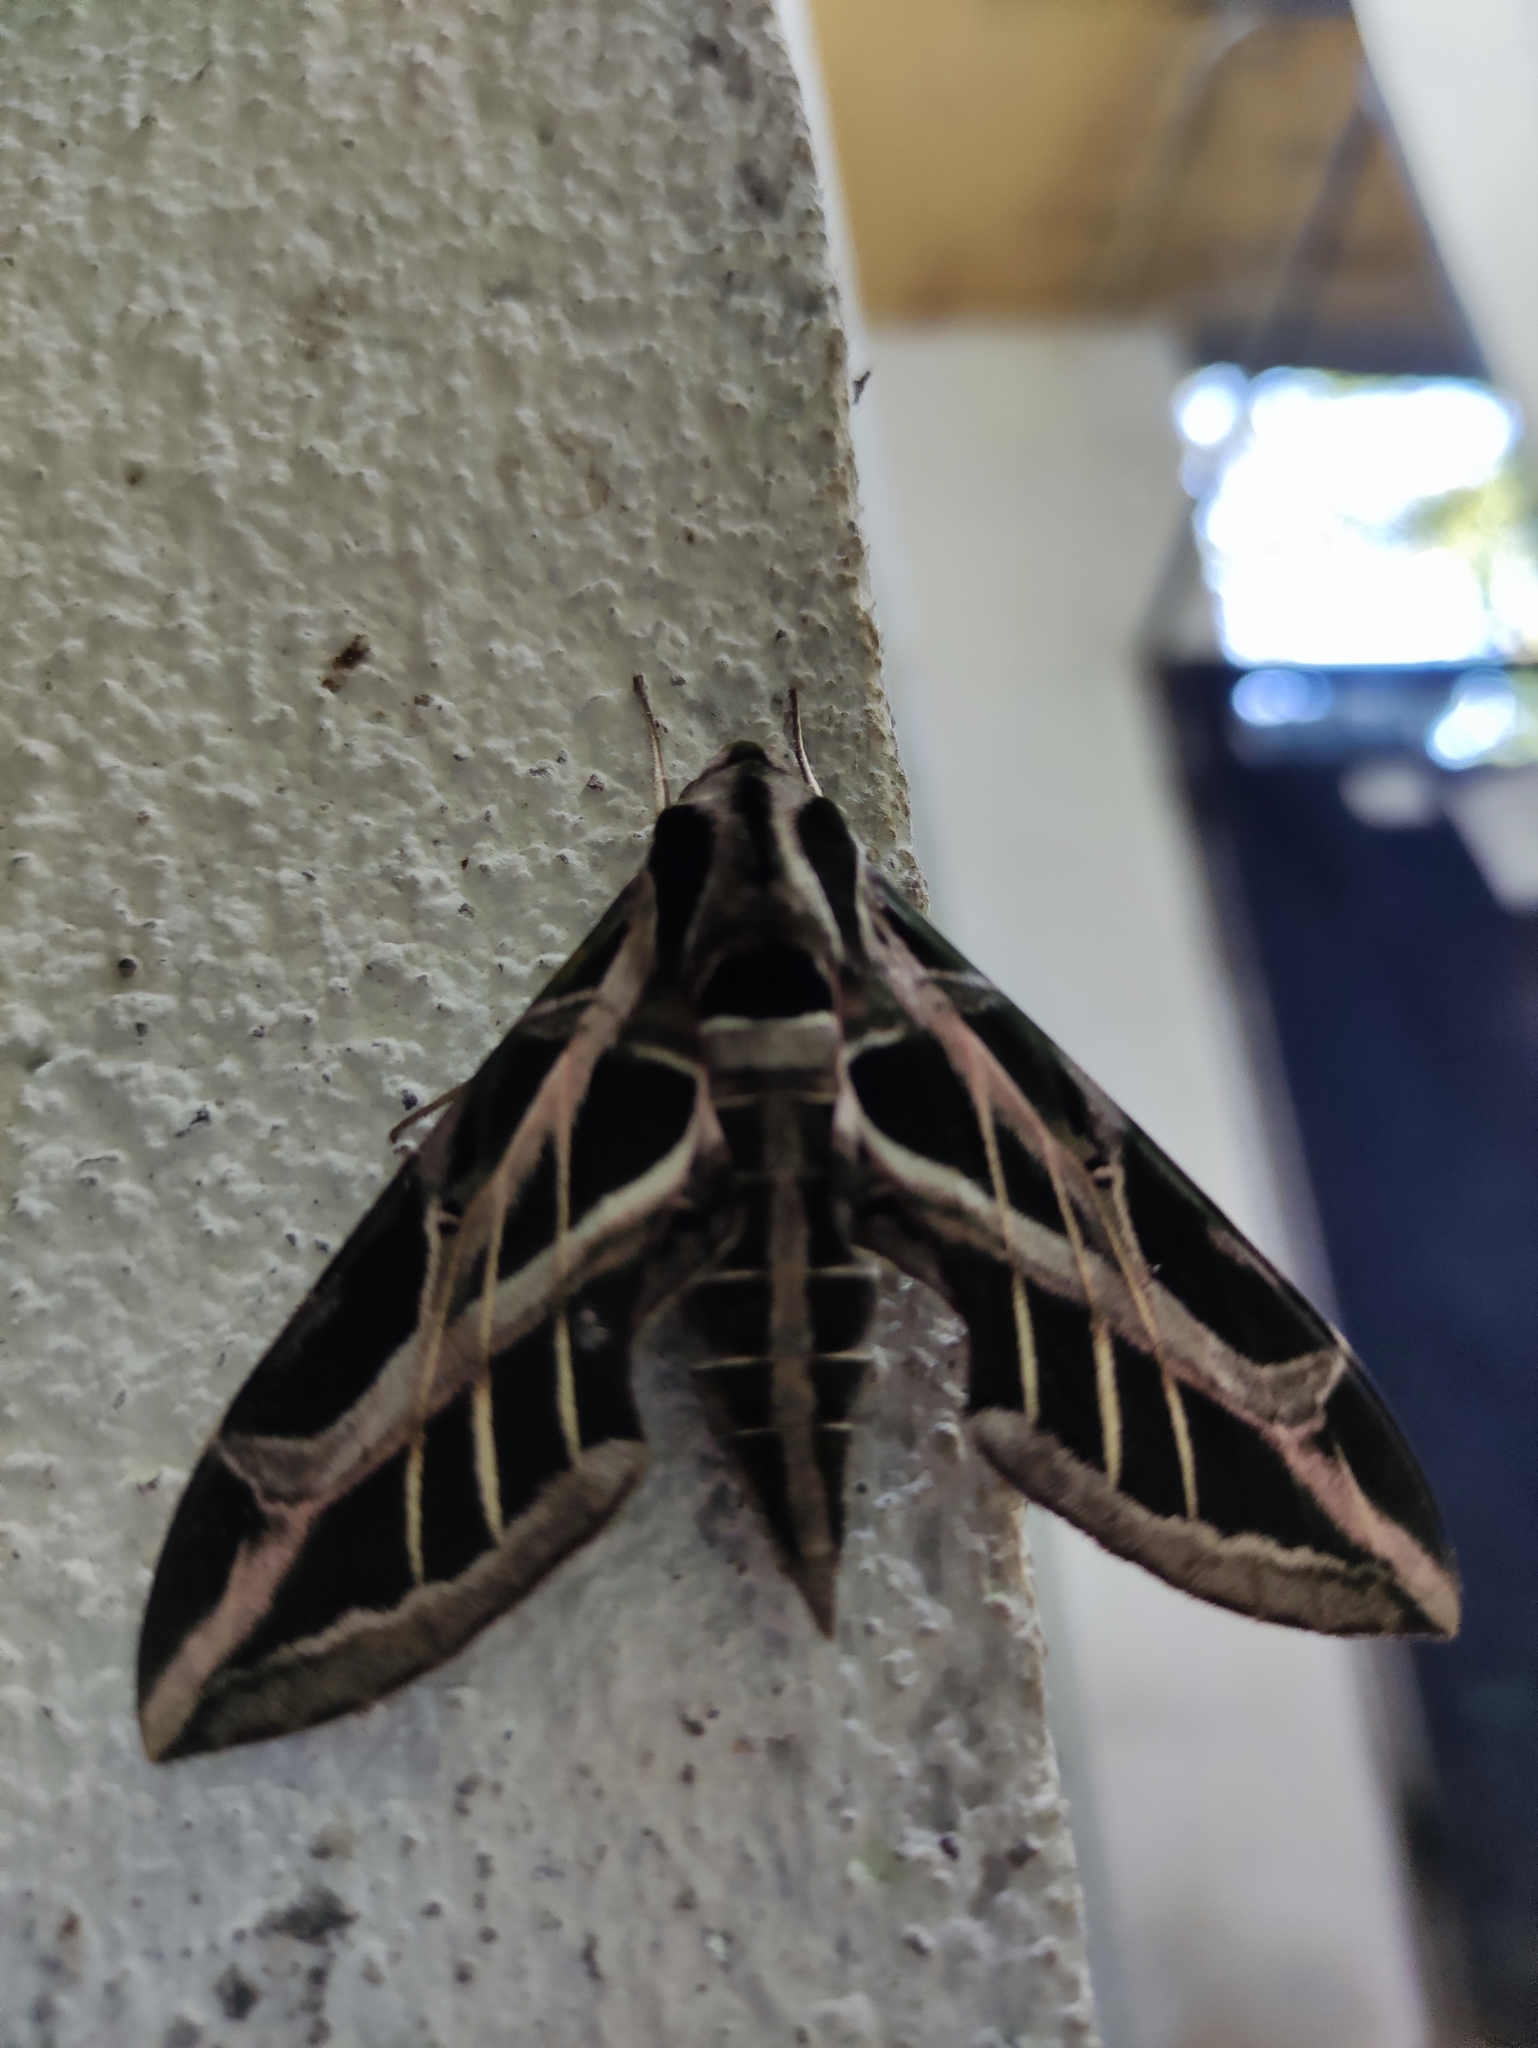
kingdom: Animalia
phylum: Arthropoda
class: Insecta
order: Lepidoptera
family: Sphingidae
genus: Eumorpha
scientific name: Eumorpha vitis
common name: Vine sphinx
